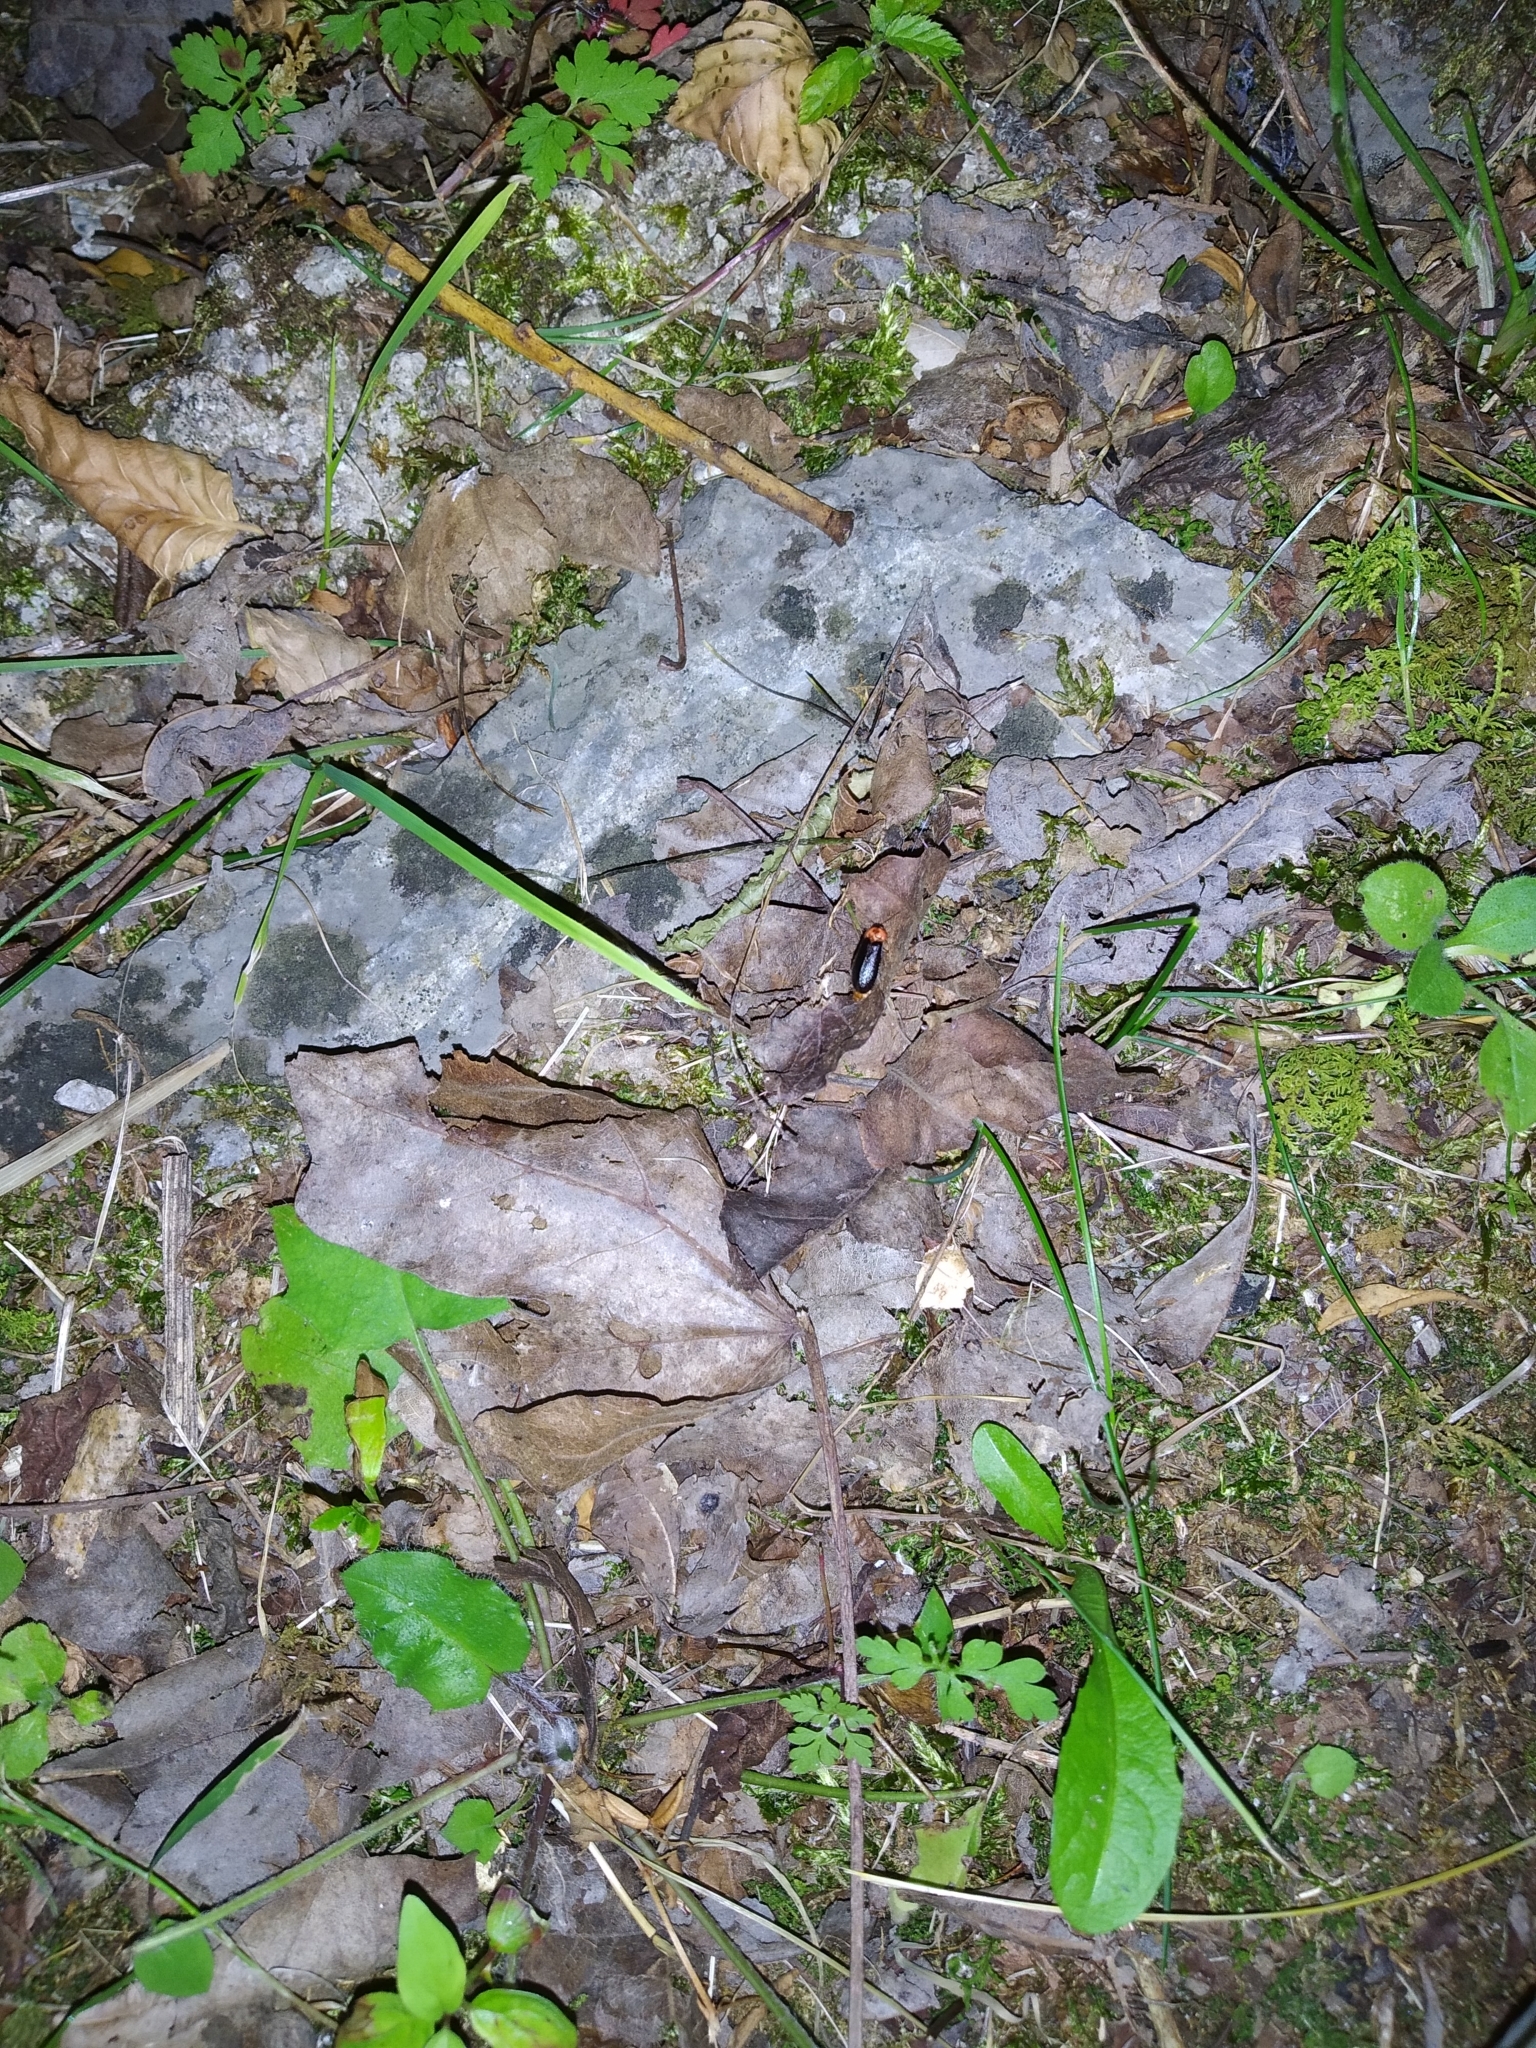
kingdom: Animalia
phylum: Arthropoda
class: Insecta
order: Coleoptera
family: Lampyridae
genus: Luciola
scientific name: Luciola italica
